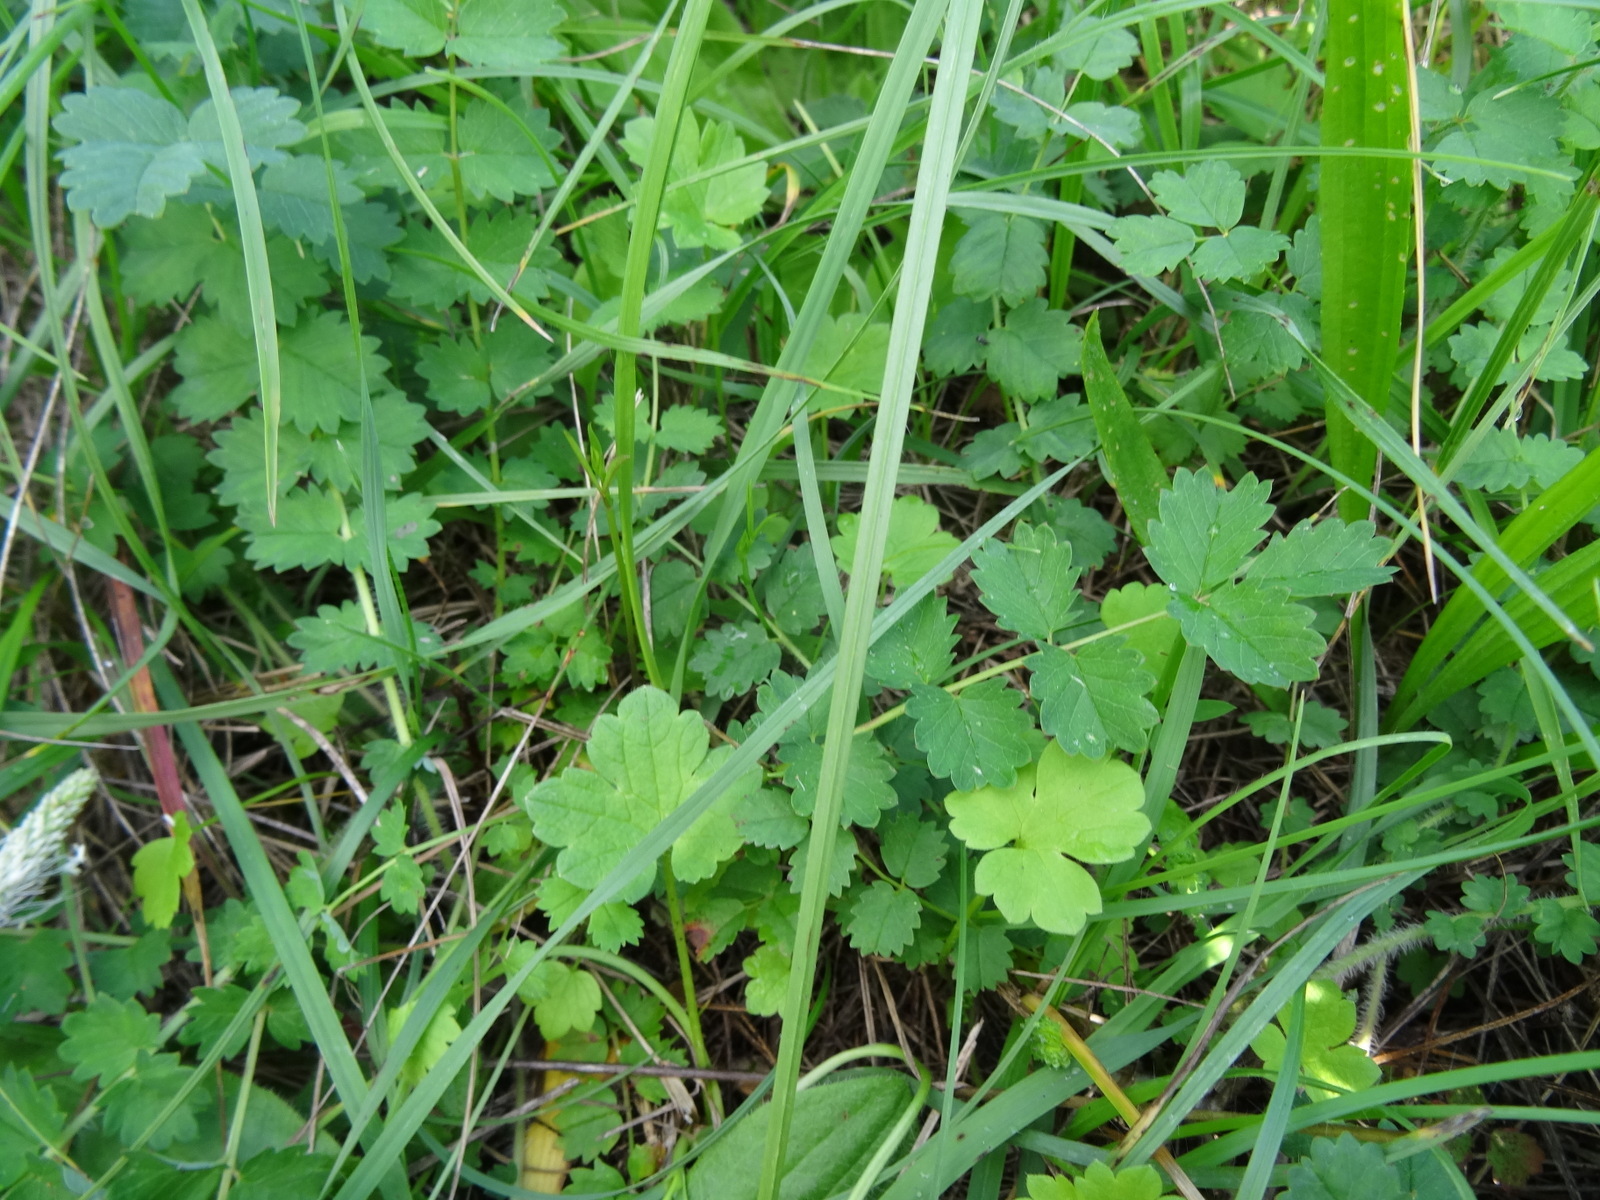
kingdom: Plantae
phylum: Tracheophyta
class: Magnoliopsida
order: Rosales
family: Rosaceae
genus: Poterium
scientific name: Poterium sanguisorba
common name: Salad burnet
